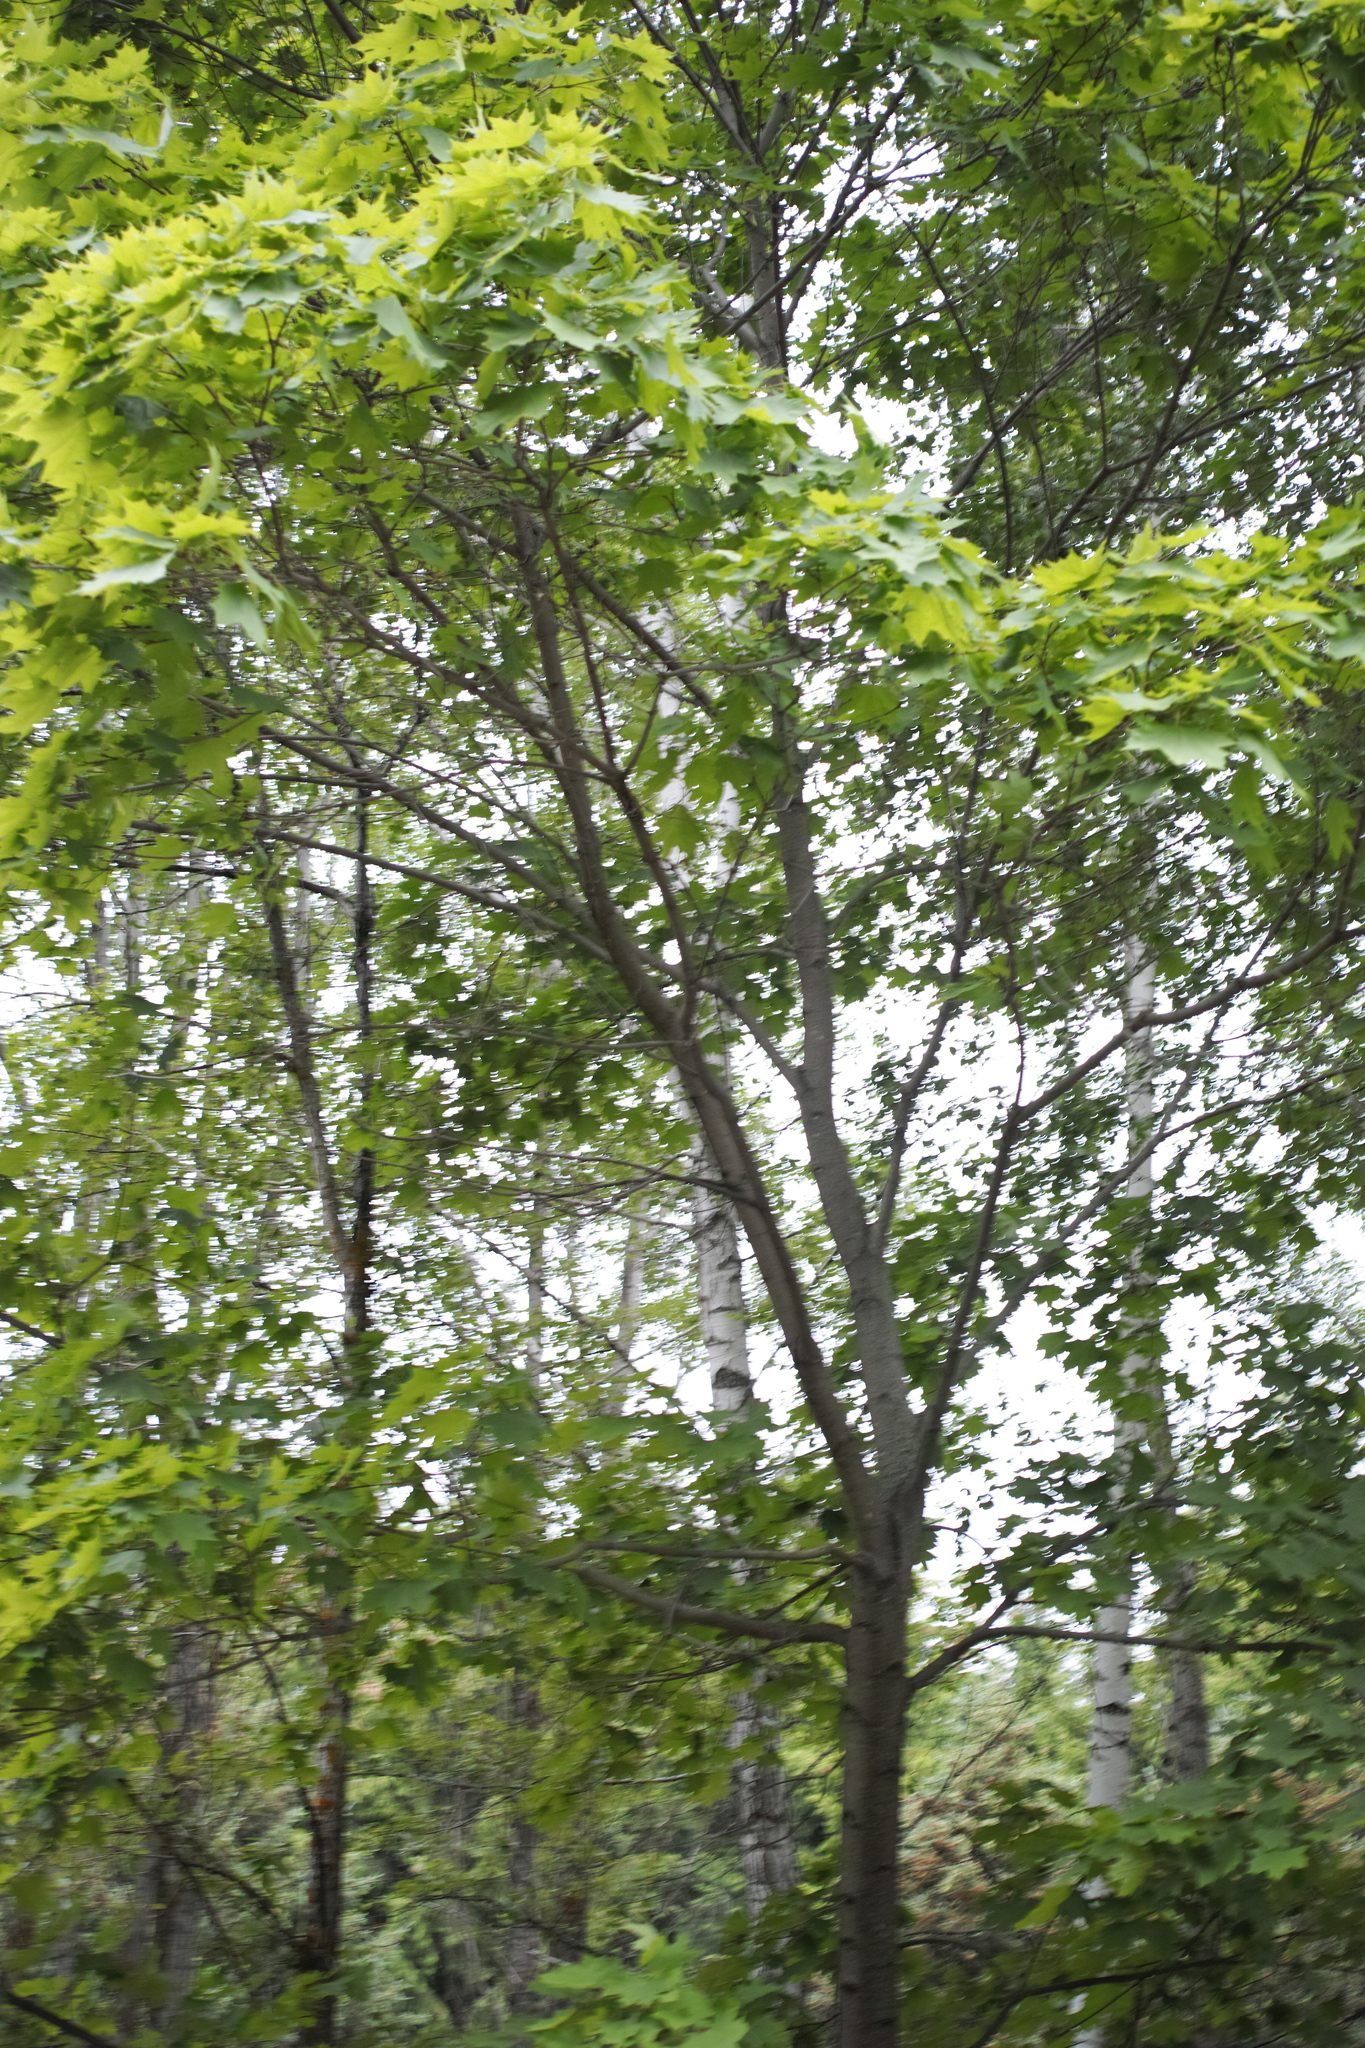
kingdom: Plantae
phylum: Tracheophyta
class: Magnoliopsida
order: Sapindales
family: Sapindaceae
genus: Acer
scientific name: Acer platanoides
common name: Norway maple
